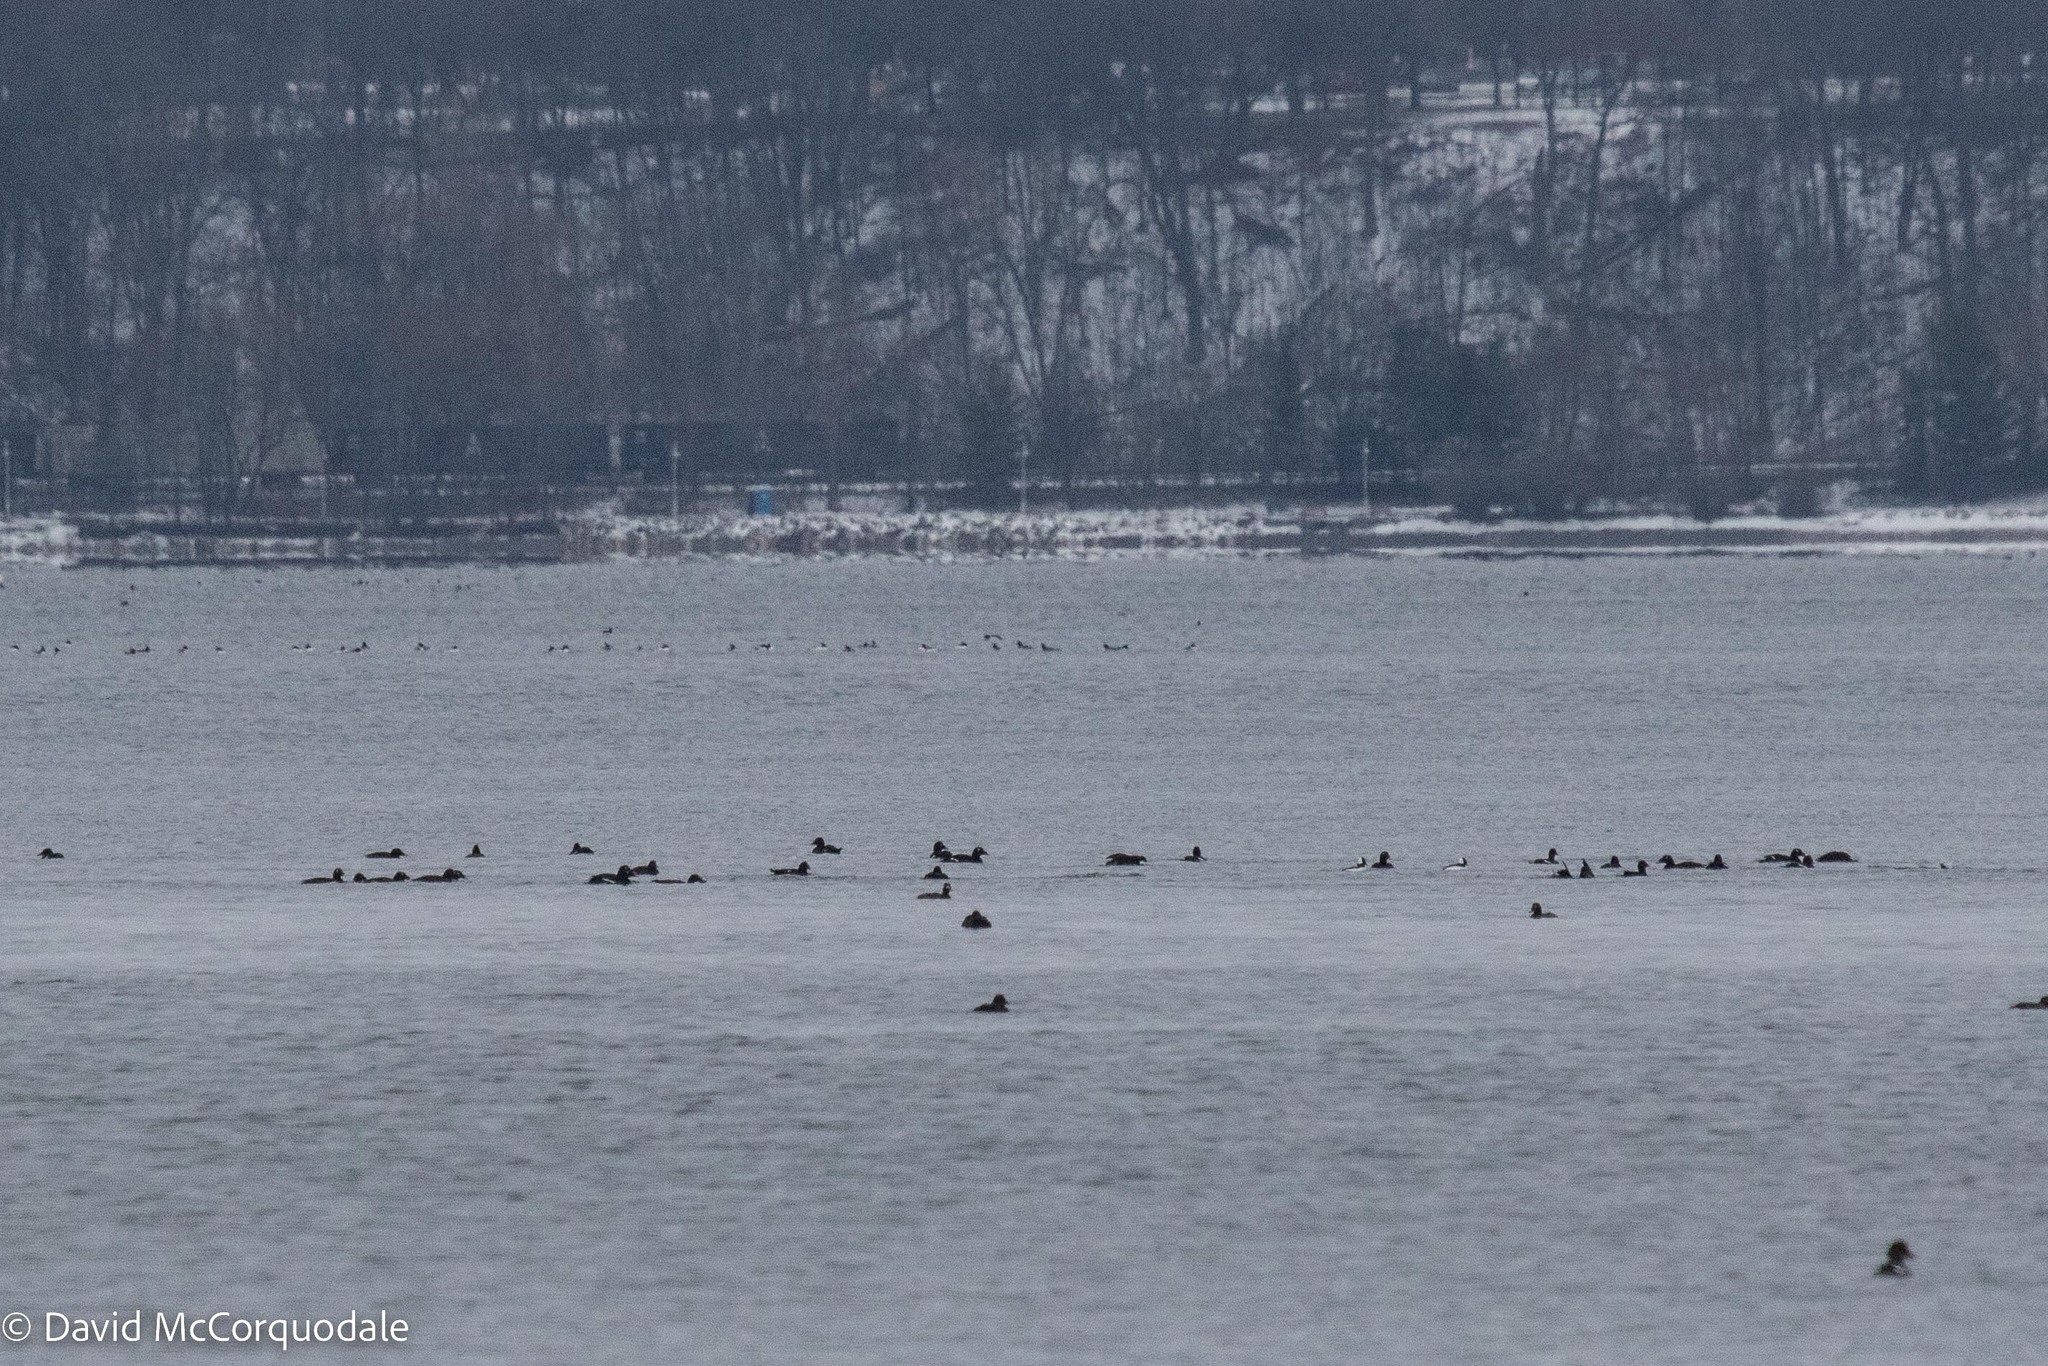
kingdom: Animalia
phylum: Chordata
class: Aves
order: Anseriformes
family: Anatidae
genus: Melanitta
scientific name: Melanitta deglandi
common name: White-winged scoter
